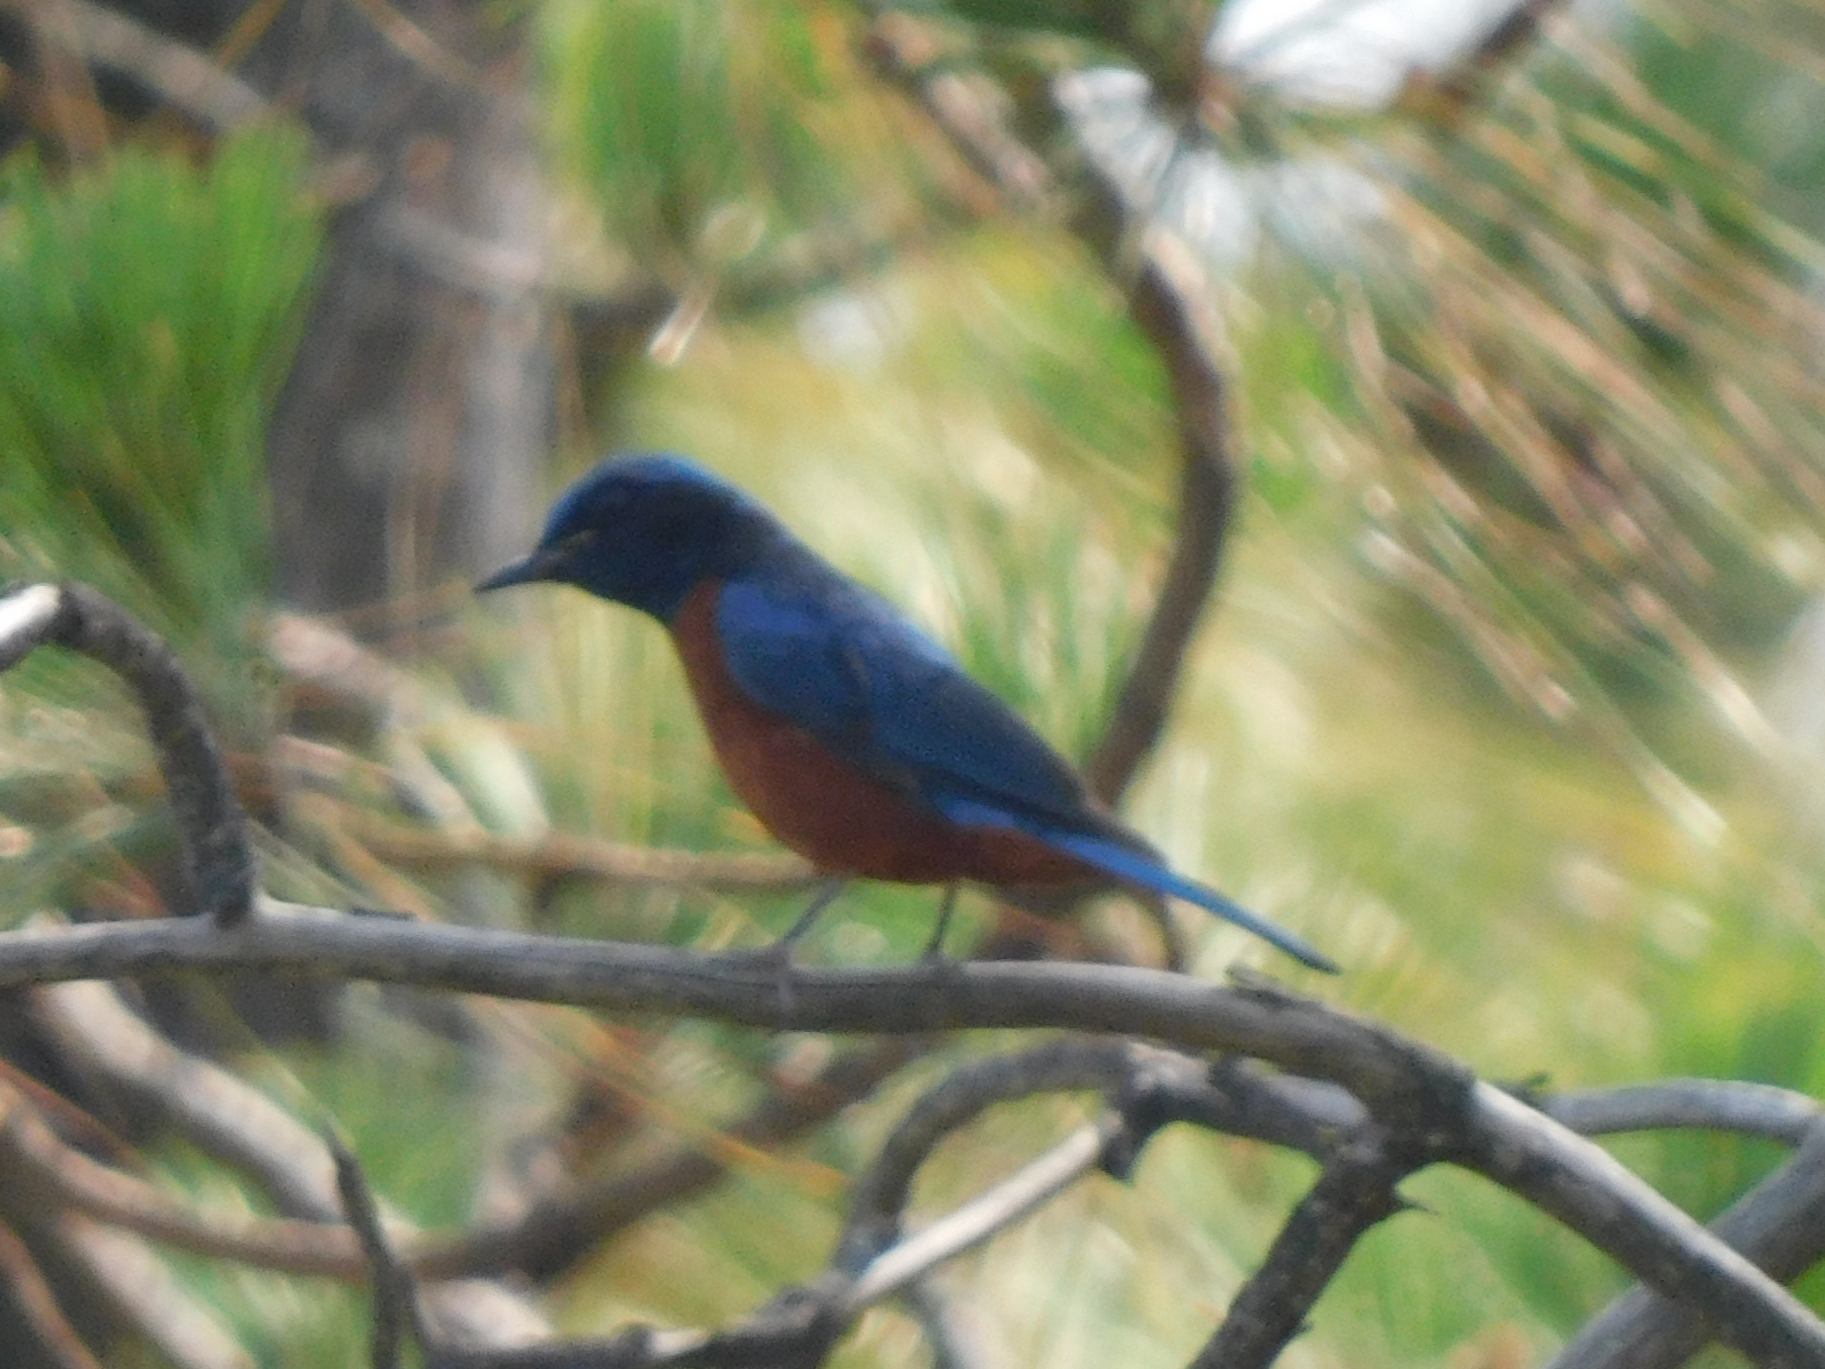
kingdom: Animalia
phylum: Chordata
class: Aves
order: Passeriformes
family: Muscicapidae
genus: Monticola
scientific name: Monticola rufiventris
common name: Chestnut-bellied rock thrush
